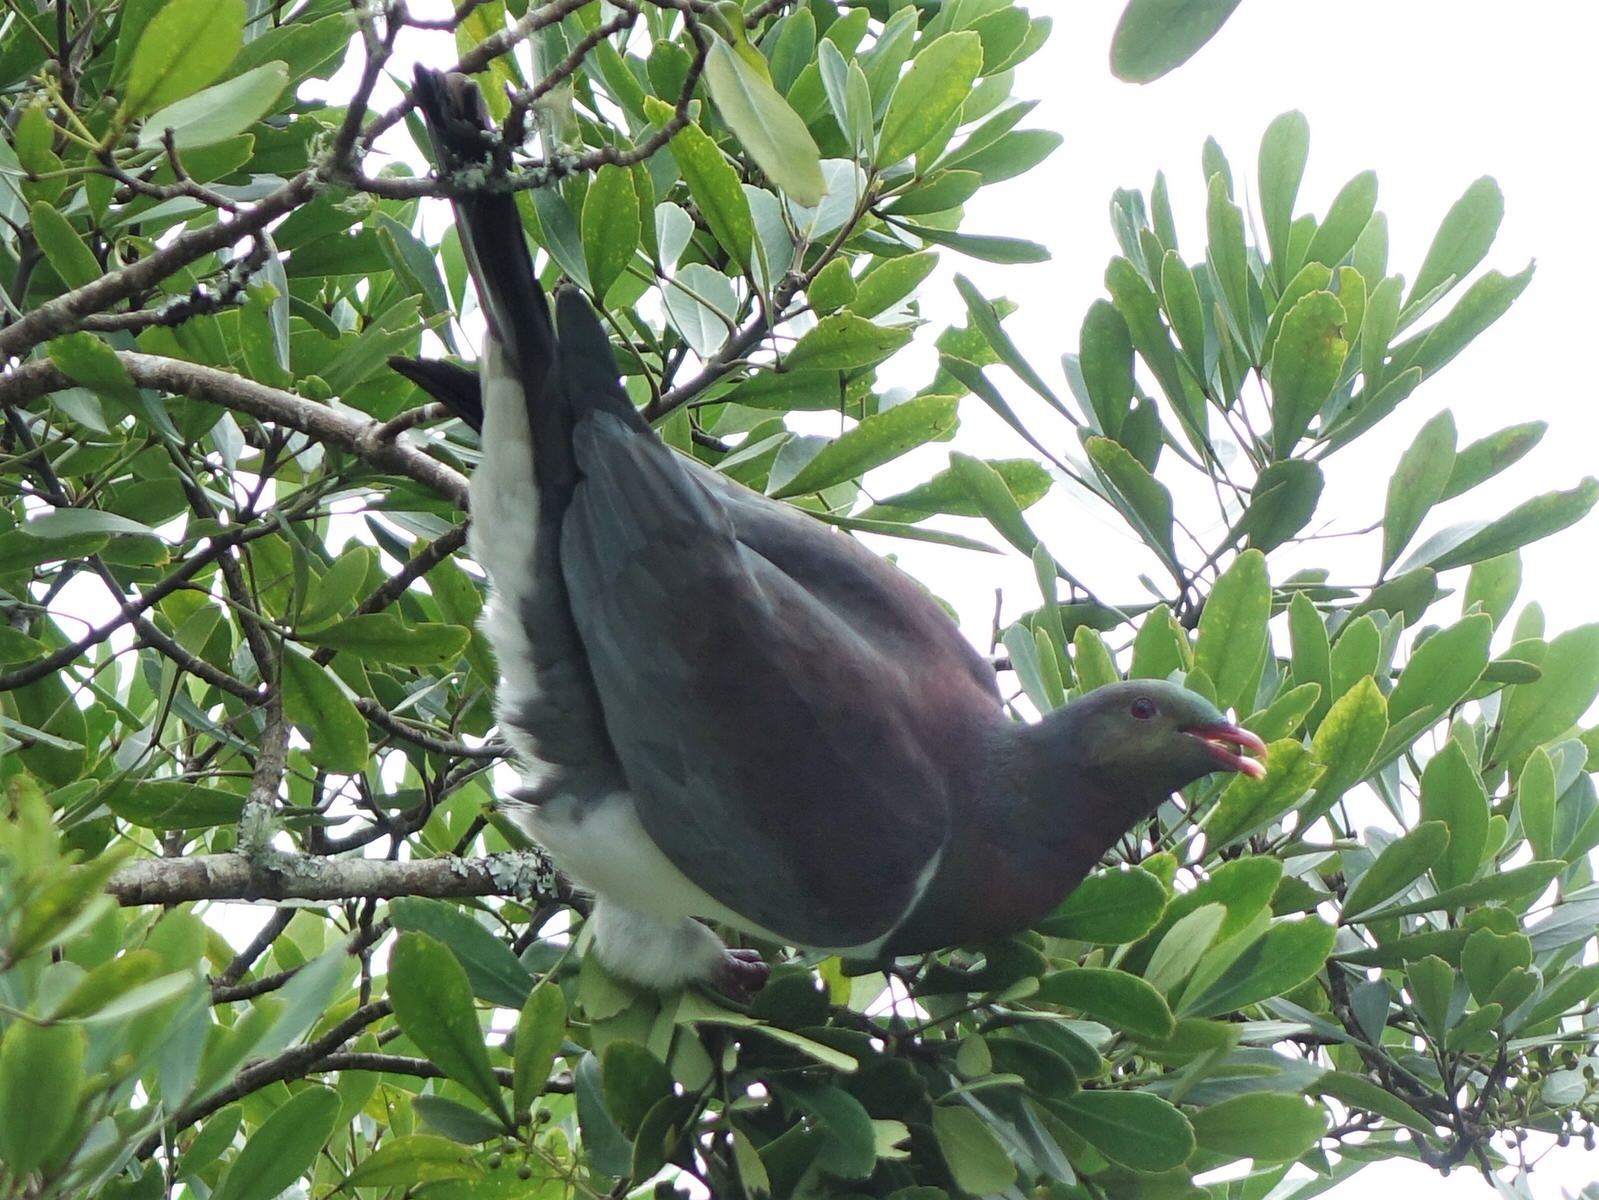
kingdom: Animalia
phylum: Chordata
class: Aves
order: Columbiformes
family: Columbidae
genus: Hemiphaga
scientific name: Hemiphaga novaeseelandiae
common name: New zealand pigeon
